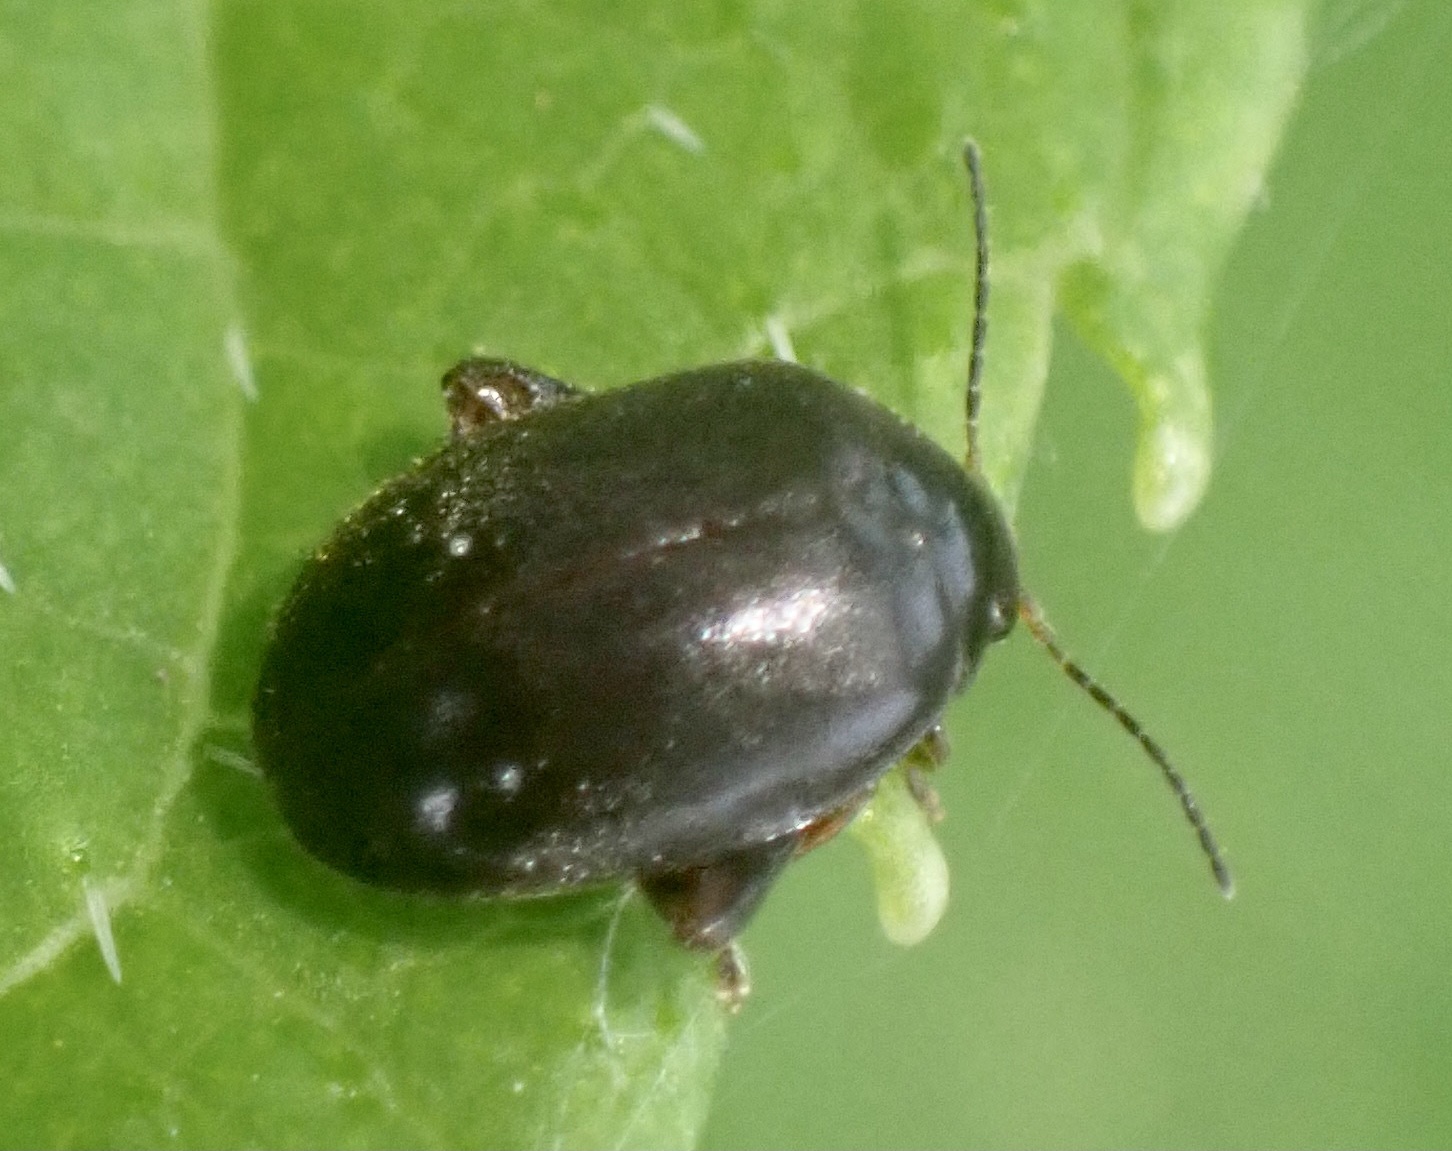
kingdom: Animalia
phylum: Arthropoda
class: Insecta
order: Coleoptera
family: Scirtidae
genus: Scirtes
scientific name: Scirtes hemisphaericus
